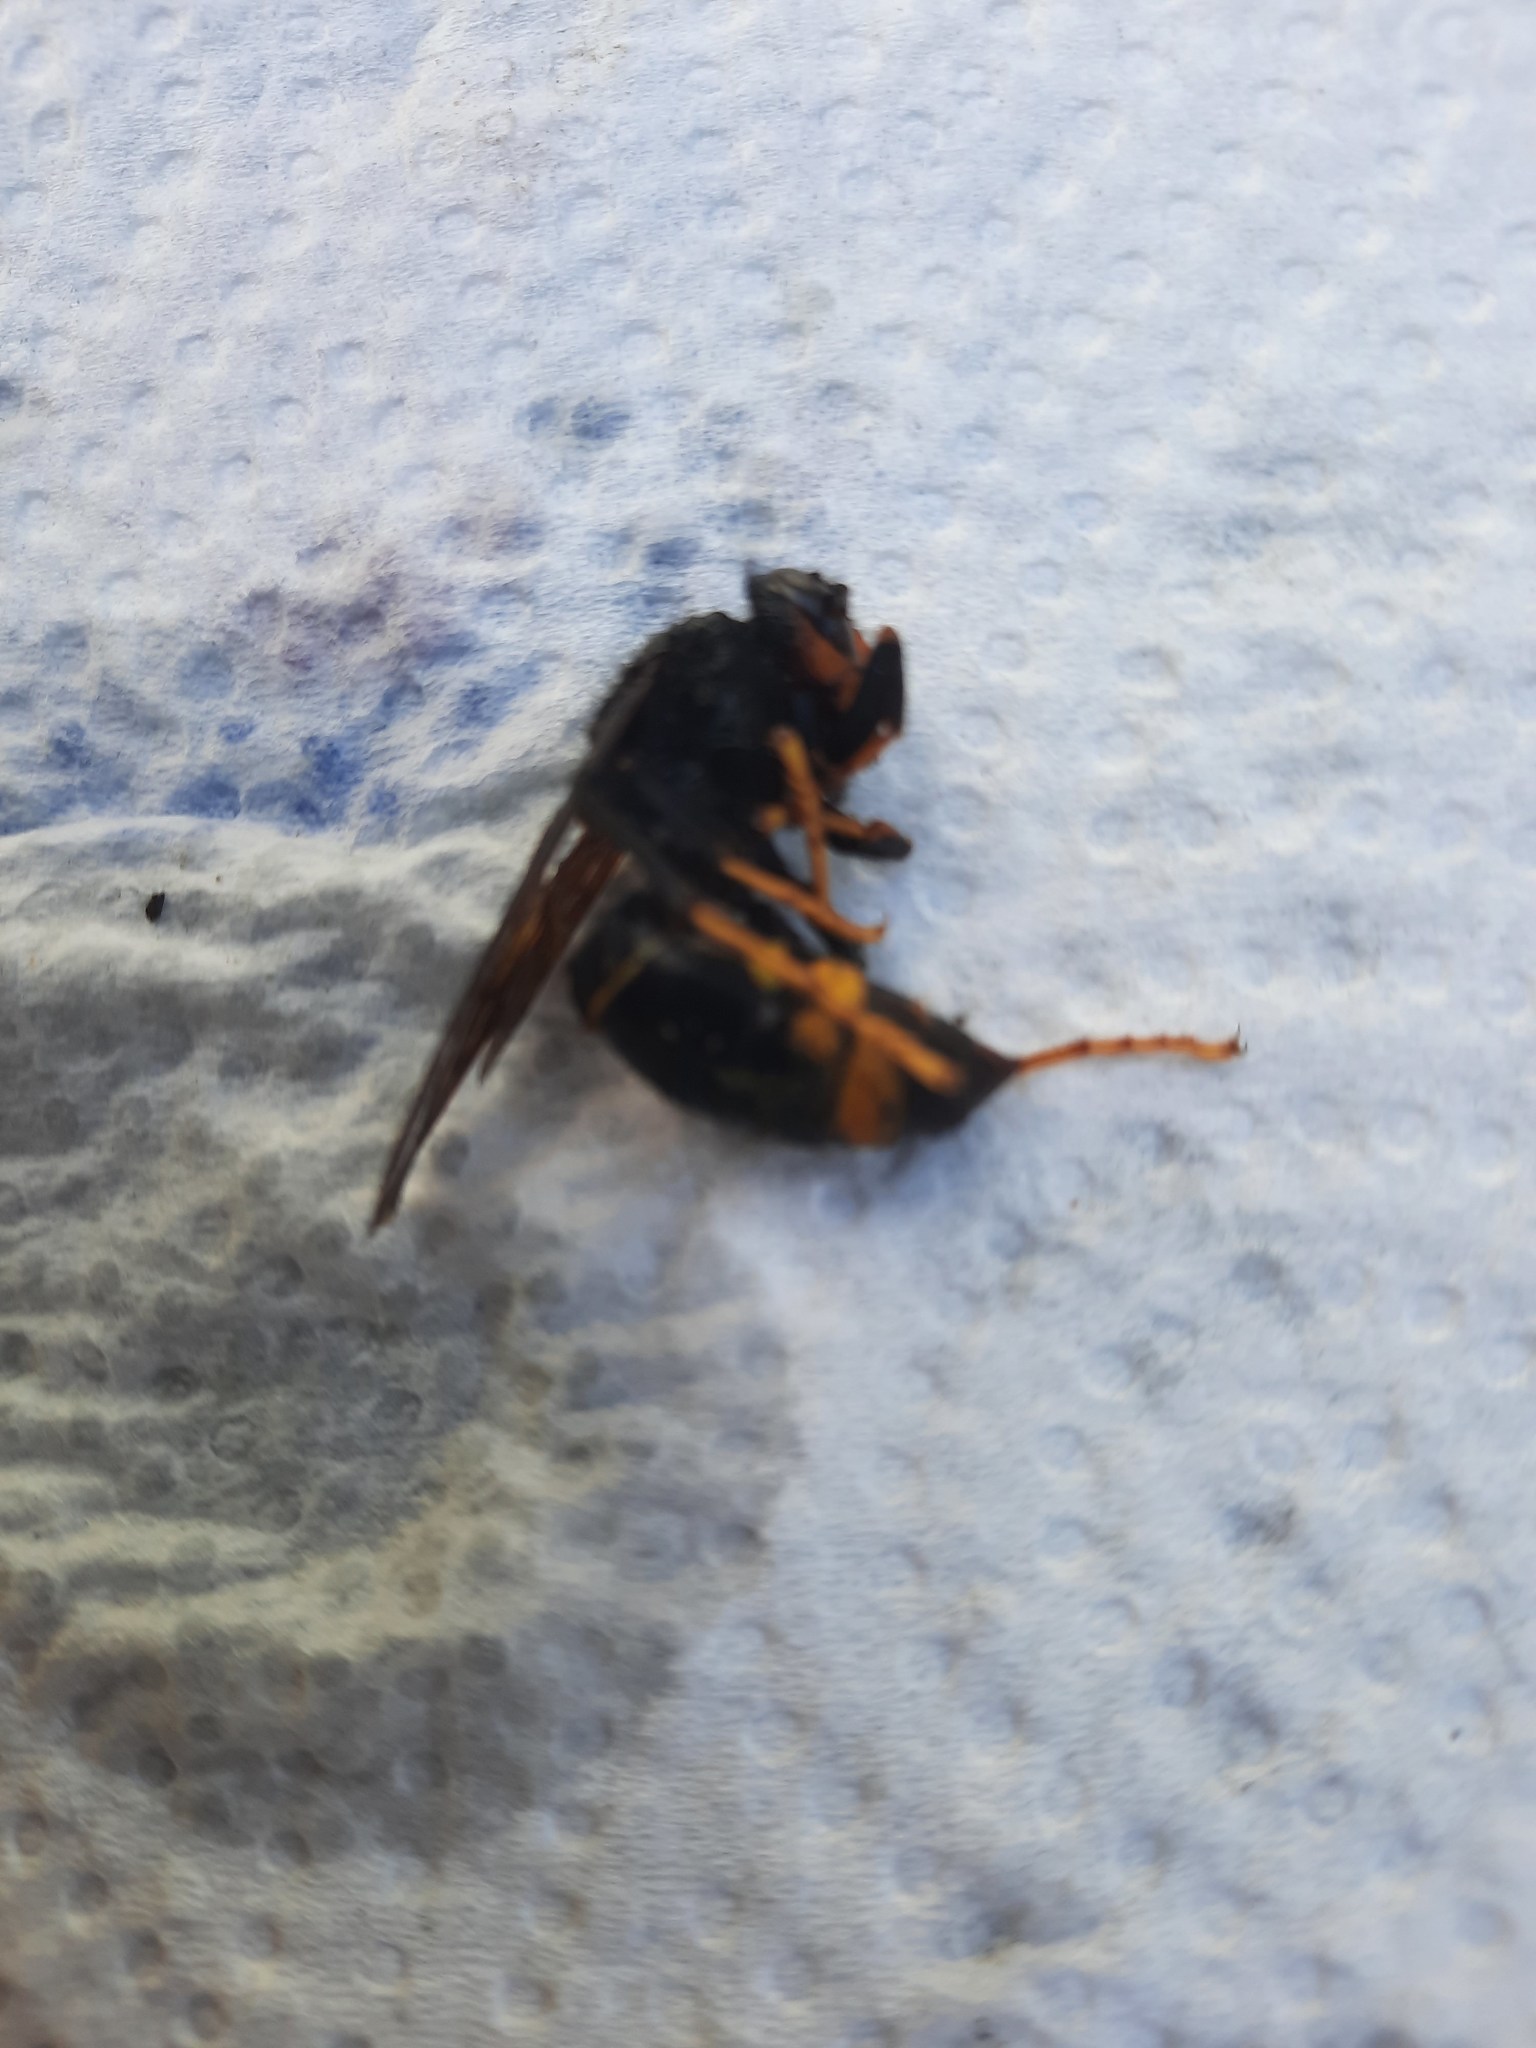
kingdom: Animalia
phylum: Arthropoda
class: Insecta
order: Hymenoptera
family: Vespidae
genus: Vespa
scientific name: Vespa velutina
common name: Asian hornet
